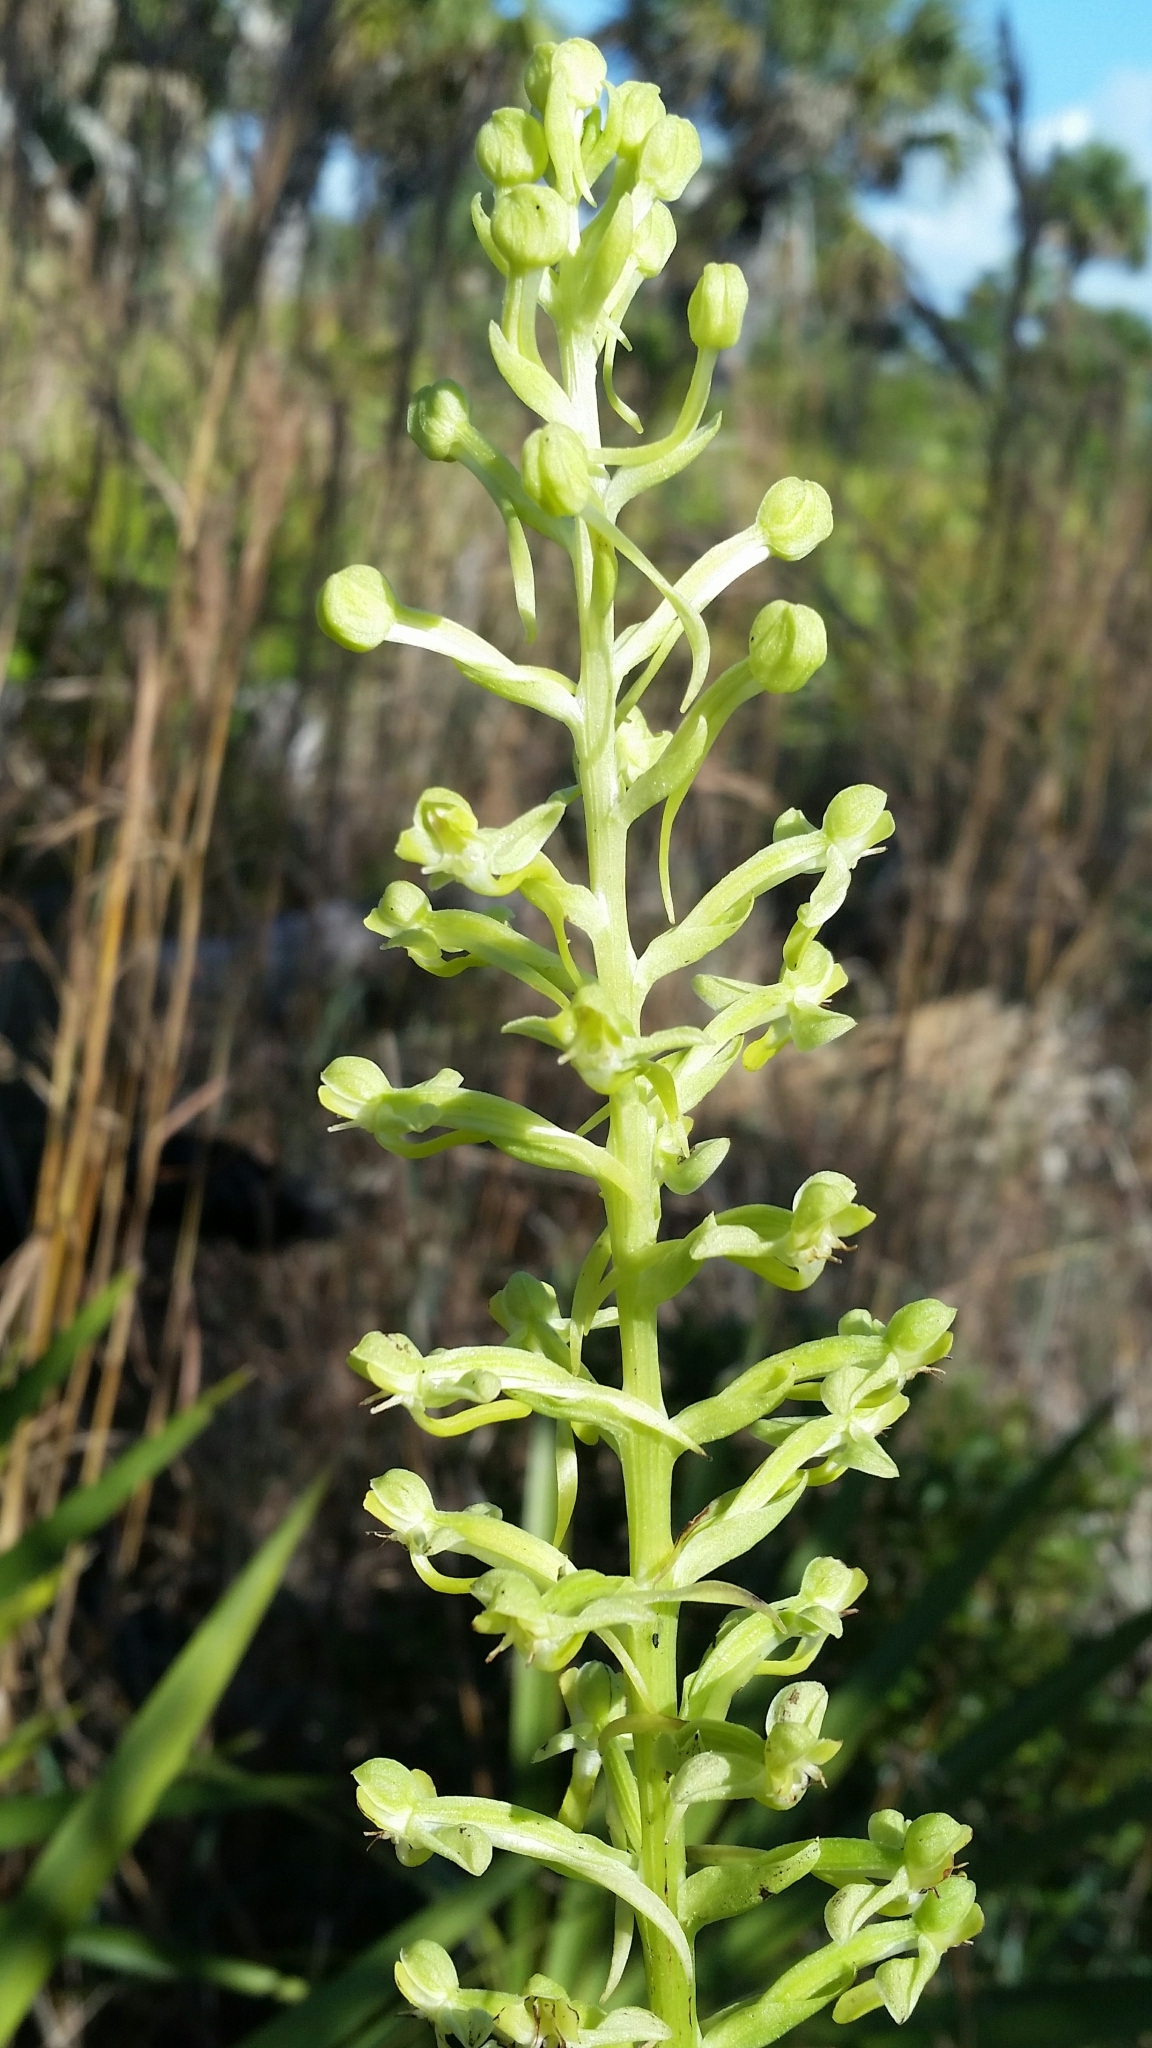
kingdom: Plantae
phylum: Tracheophyta
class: Liliopsida
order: Asparagales
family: Orchidaceae
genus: Habenaria
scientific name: Habenaria floribunda
